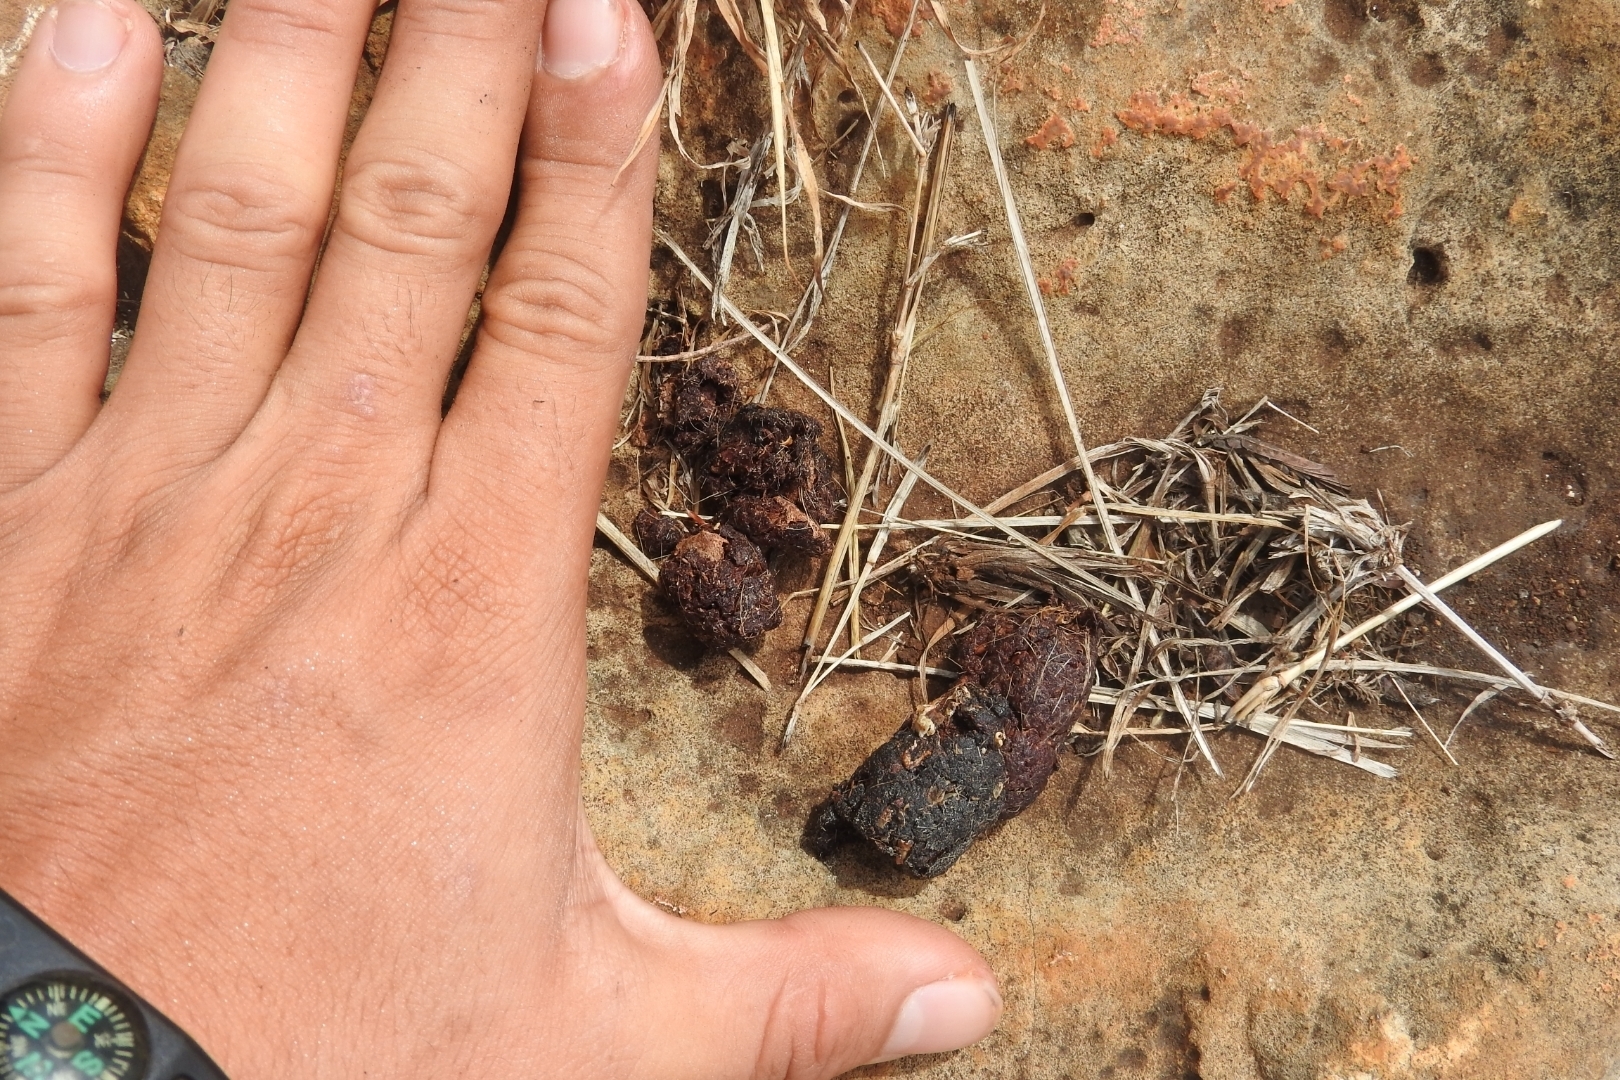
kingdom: Animalia
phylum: Chordata
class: Mammalia
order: Carnivora
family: Canidae
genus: Urocyon
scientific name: Urocyon cinereoargenteus
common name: Gray fox
